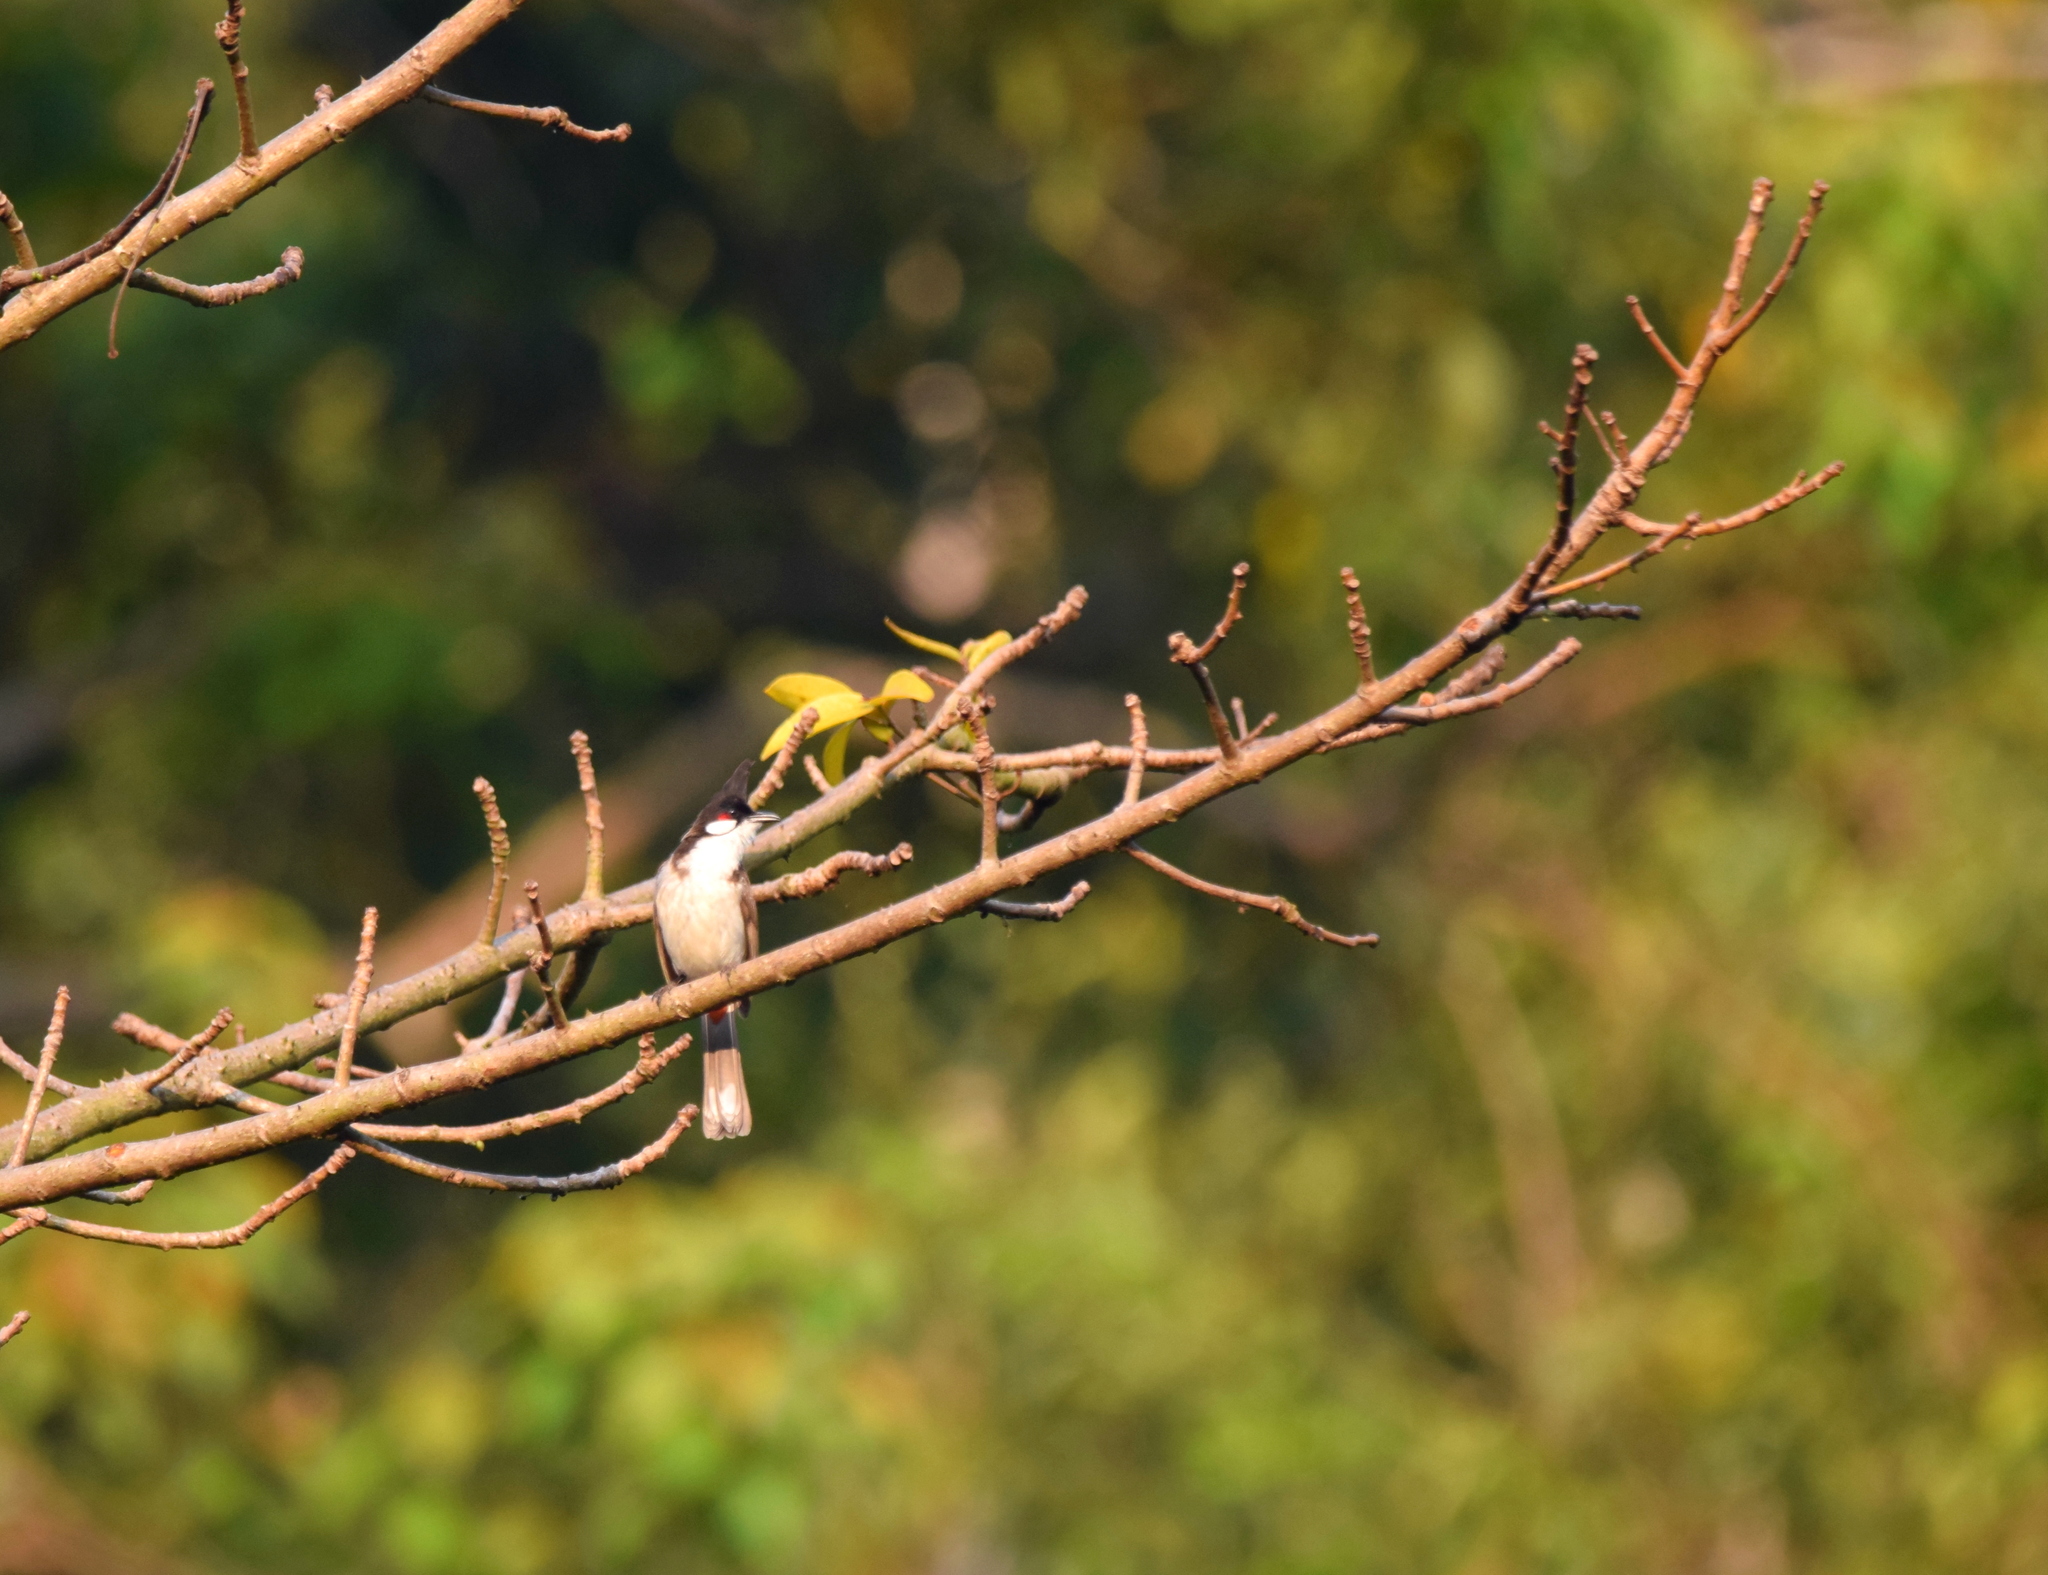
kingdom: Animalia
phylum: Chordata
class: Aves
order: Passeriformes
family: Pycnonotidae
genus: Pycnonotus
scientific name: Pycnonotus jocosus
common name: Red-whiskered bulbul
